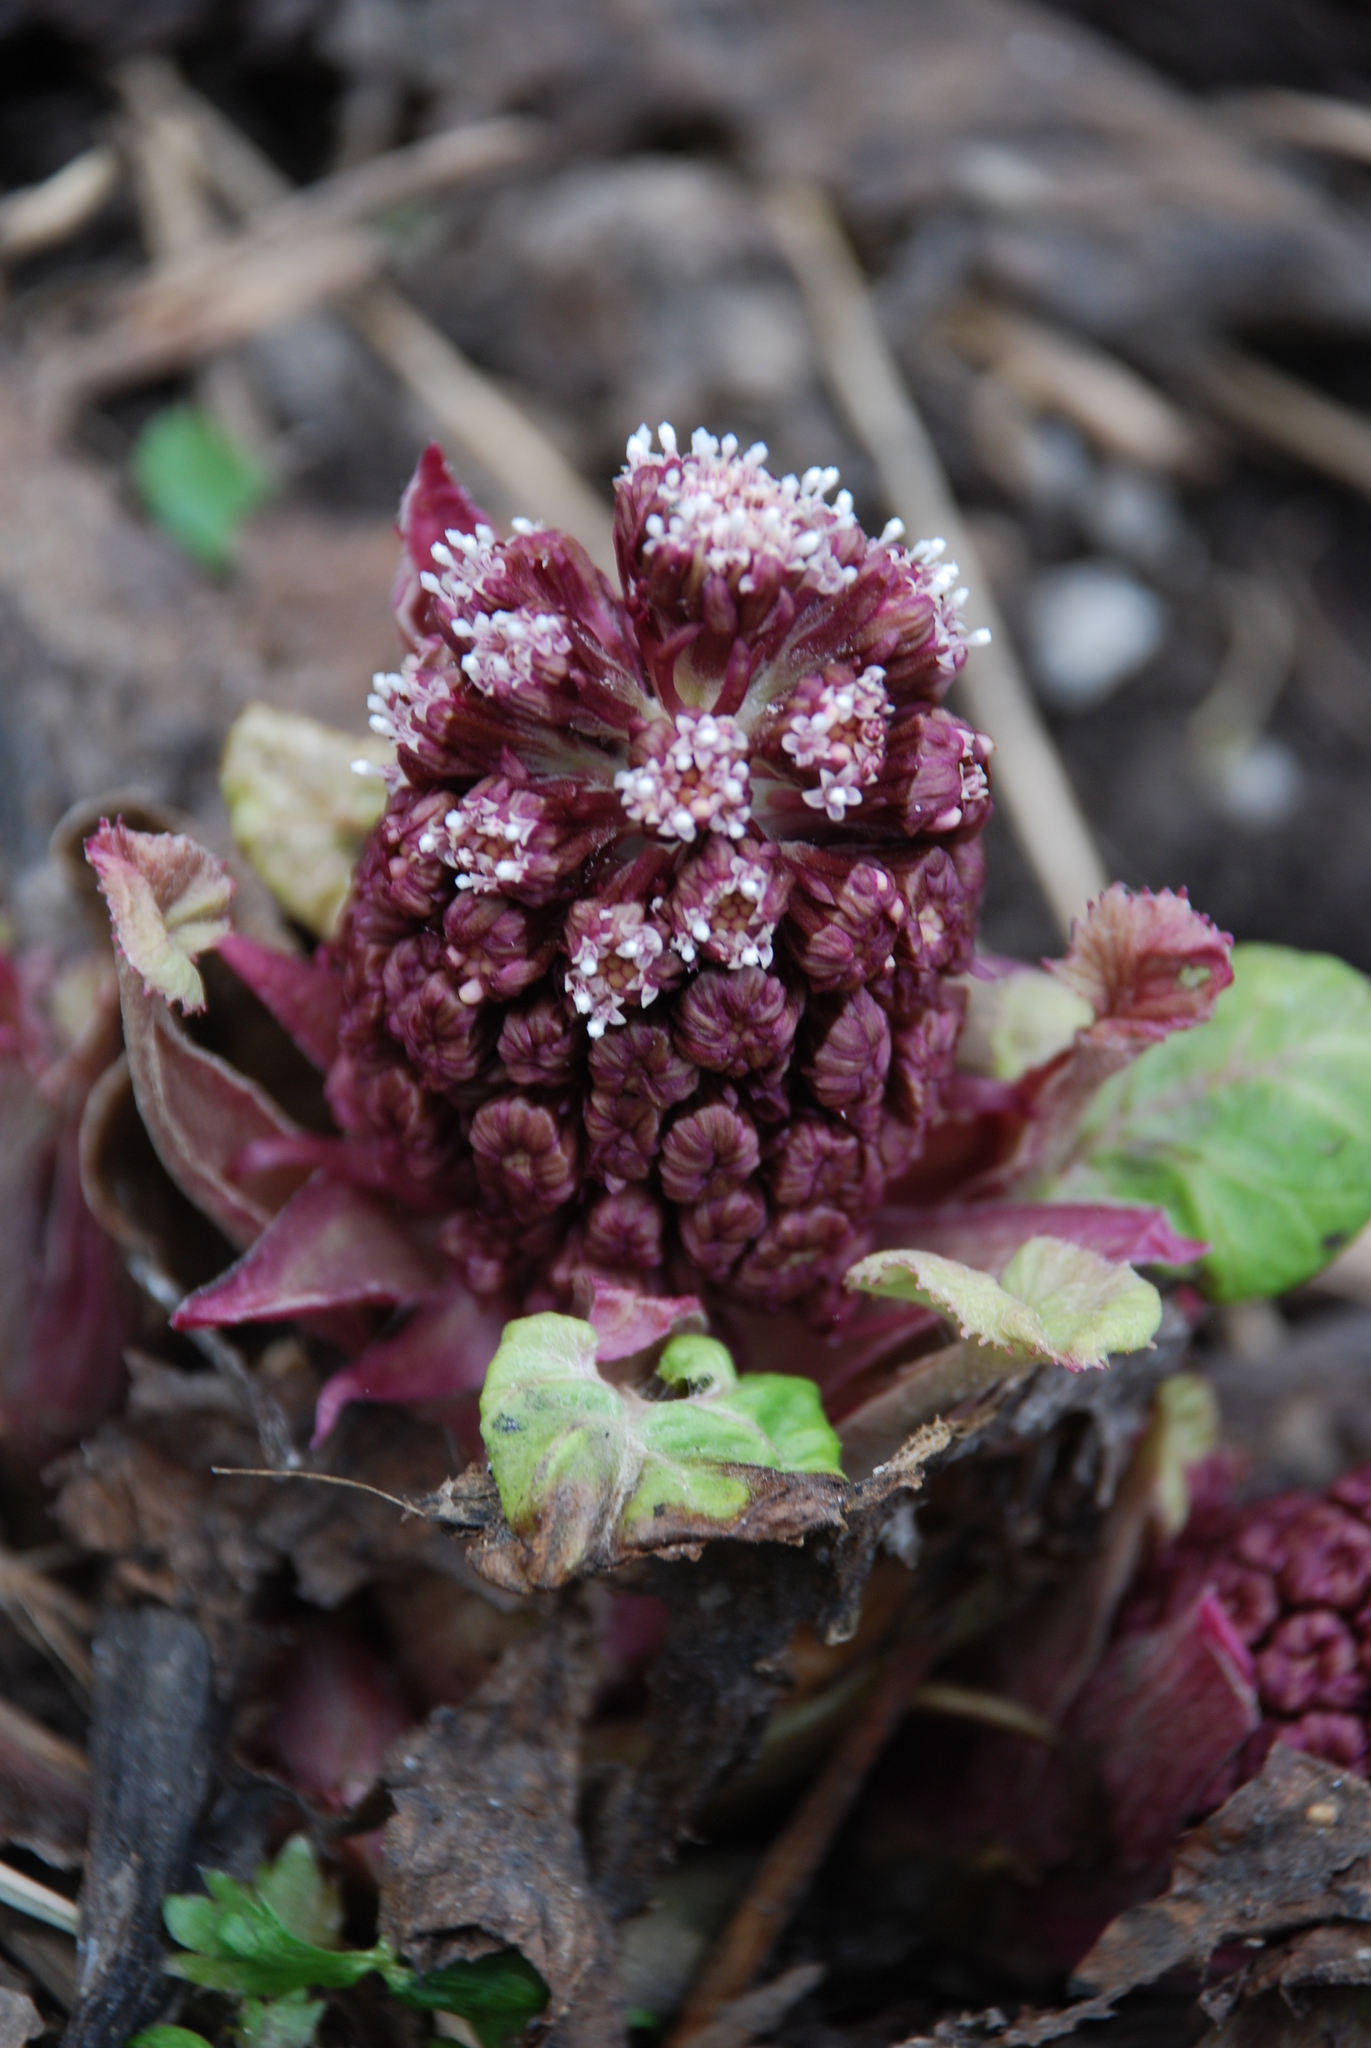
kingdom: Plantae
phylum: Tracheophyta
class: Magnoliopsida
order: Asterales
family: Asteraceae
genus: Petasites
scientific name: Petasites hybridus
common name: Butterbur
